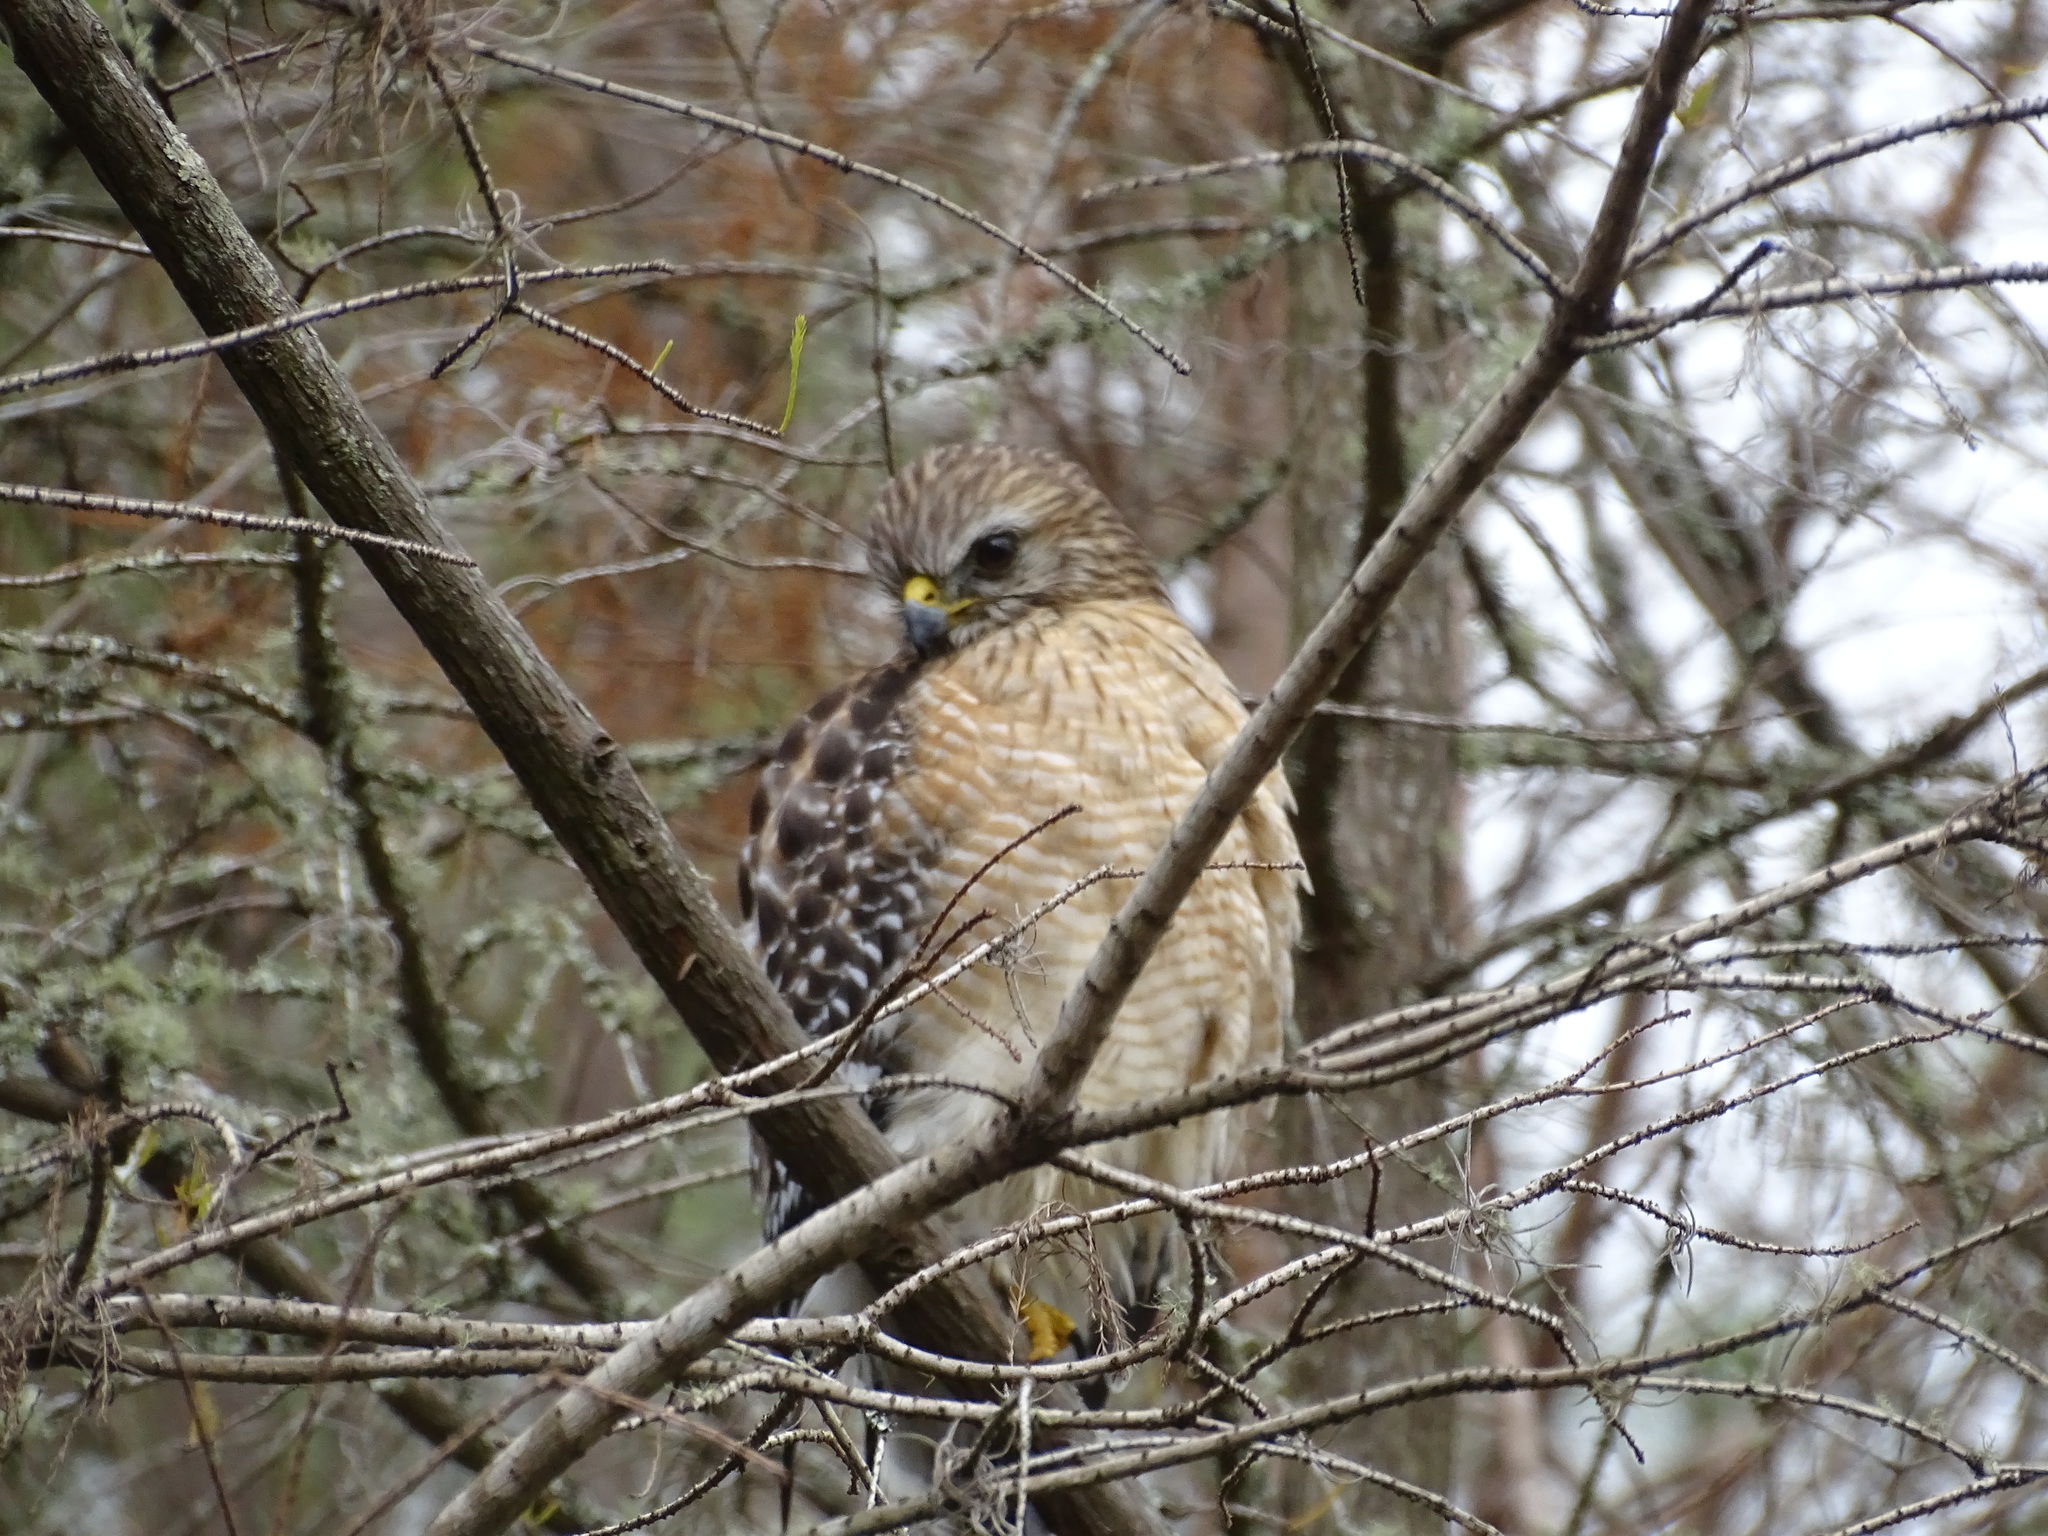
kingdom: Animalia
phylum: Chordata
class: Aves
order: Accipitriformes
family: Accipitridae
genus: Buteo
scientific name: Buteo lineatus
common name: Red-shouldered hawk
